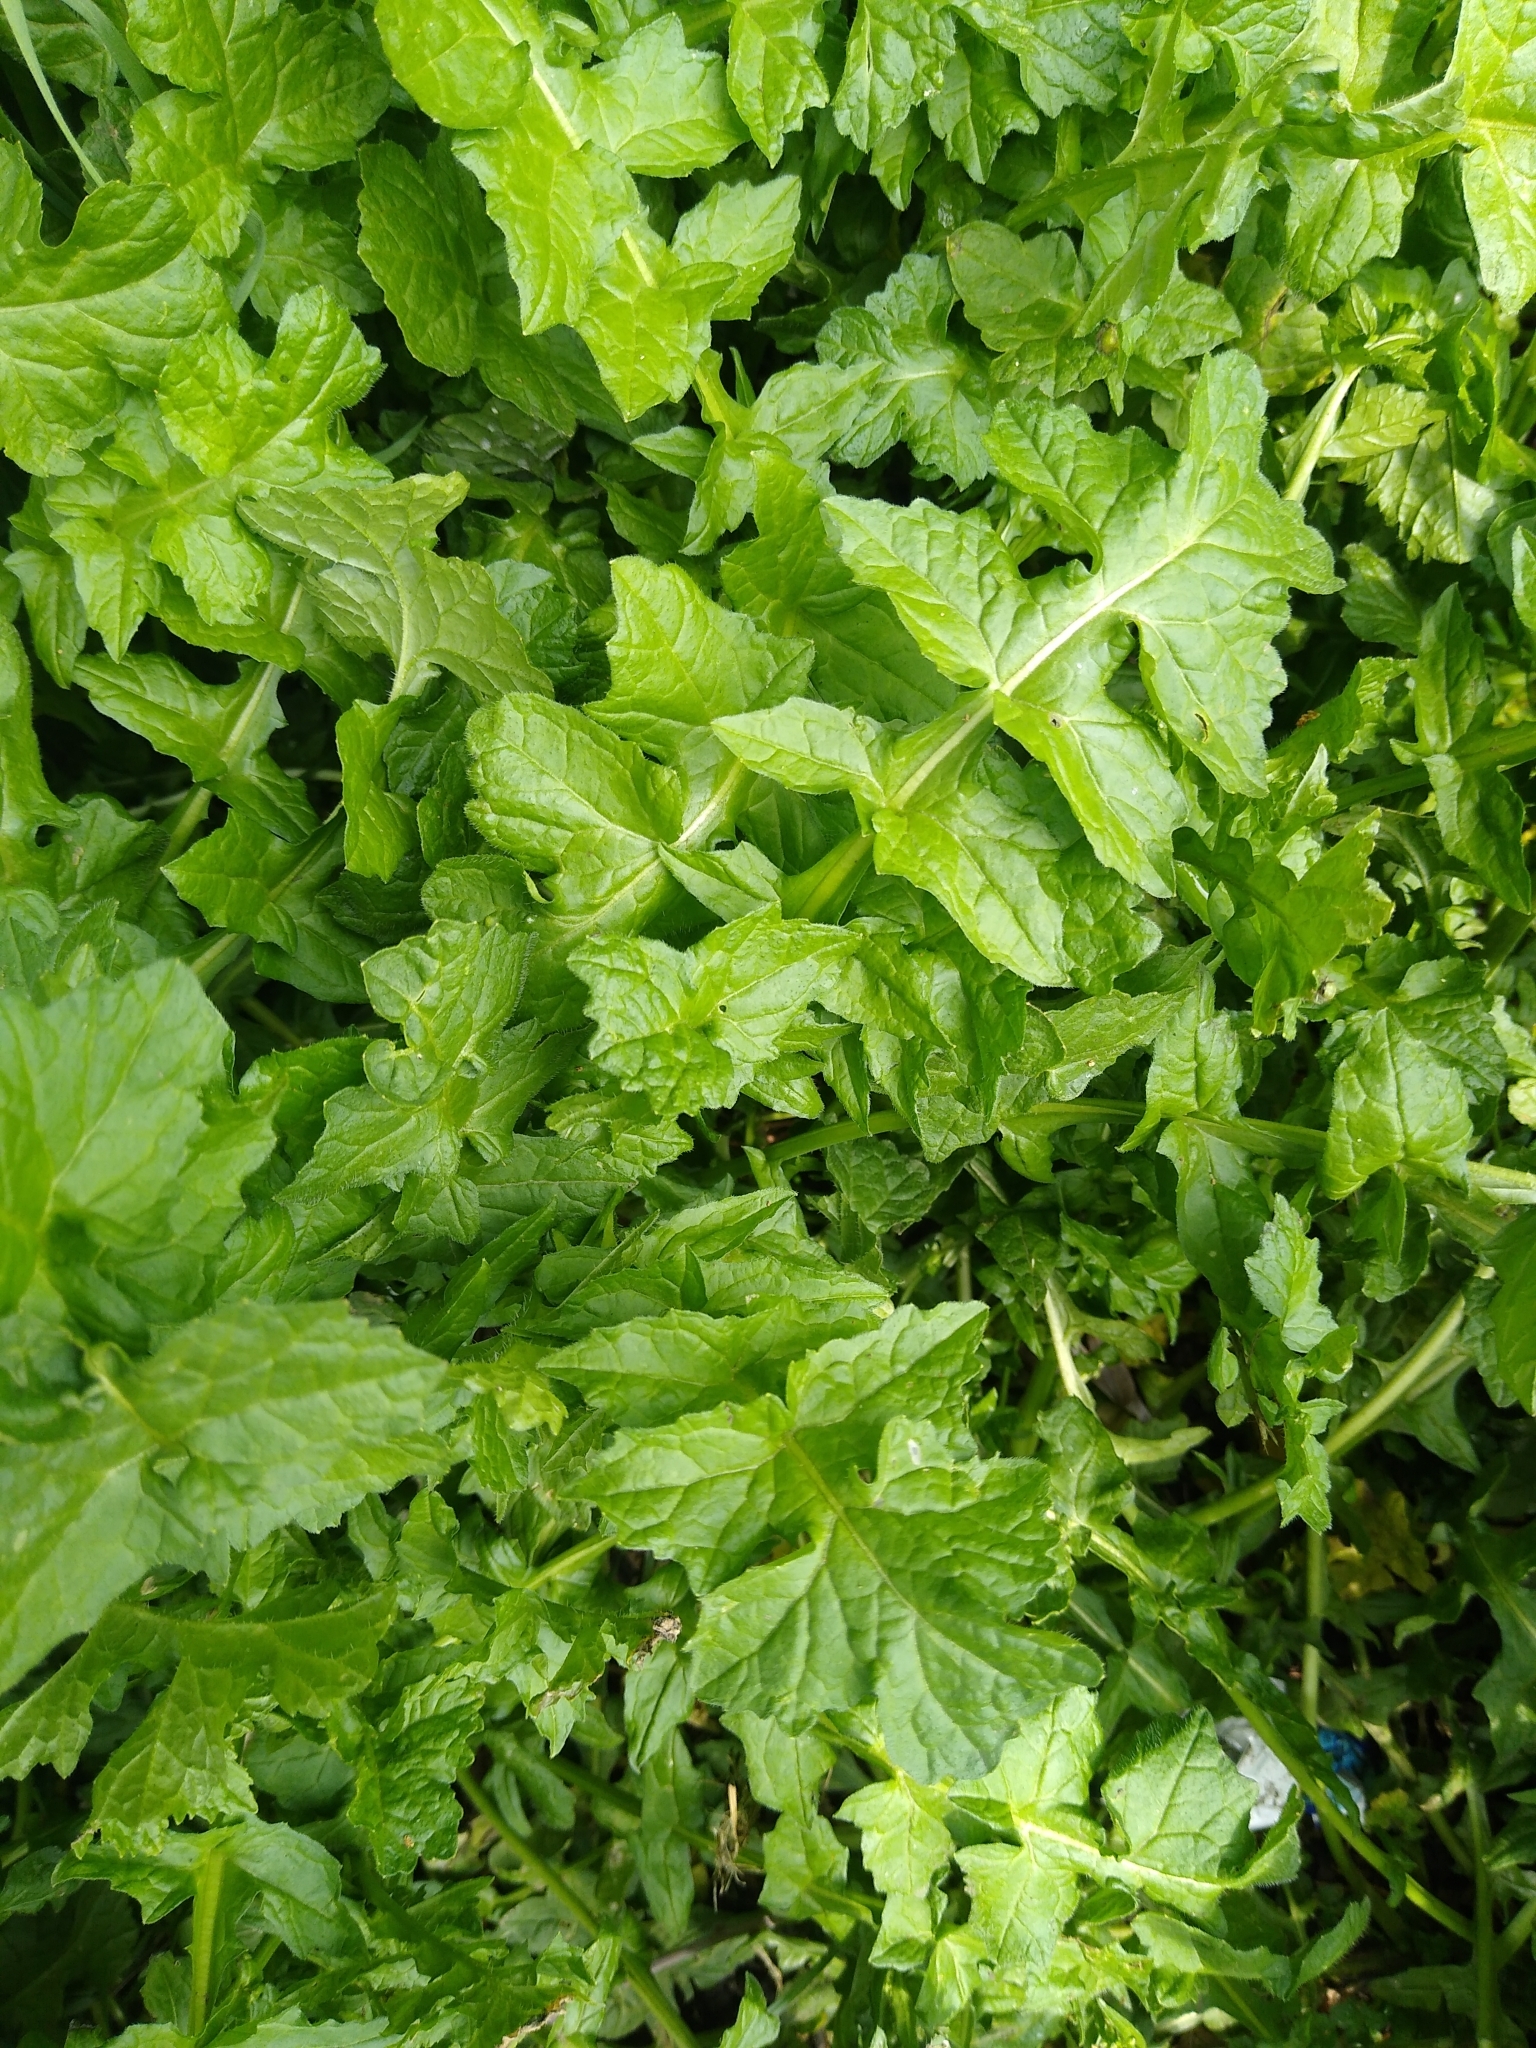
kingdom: Plantae
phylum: Tracheophyta
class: Magnoliopsida
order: Brassicales
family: Brassicaceae
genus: Sisymbrium
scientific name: Sisymbrium officinale
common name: Hedge mustard
